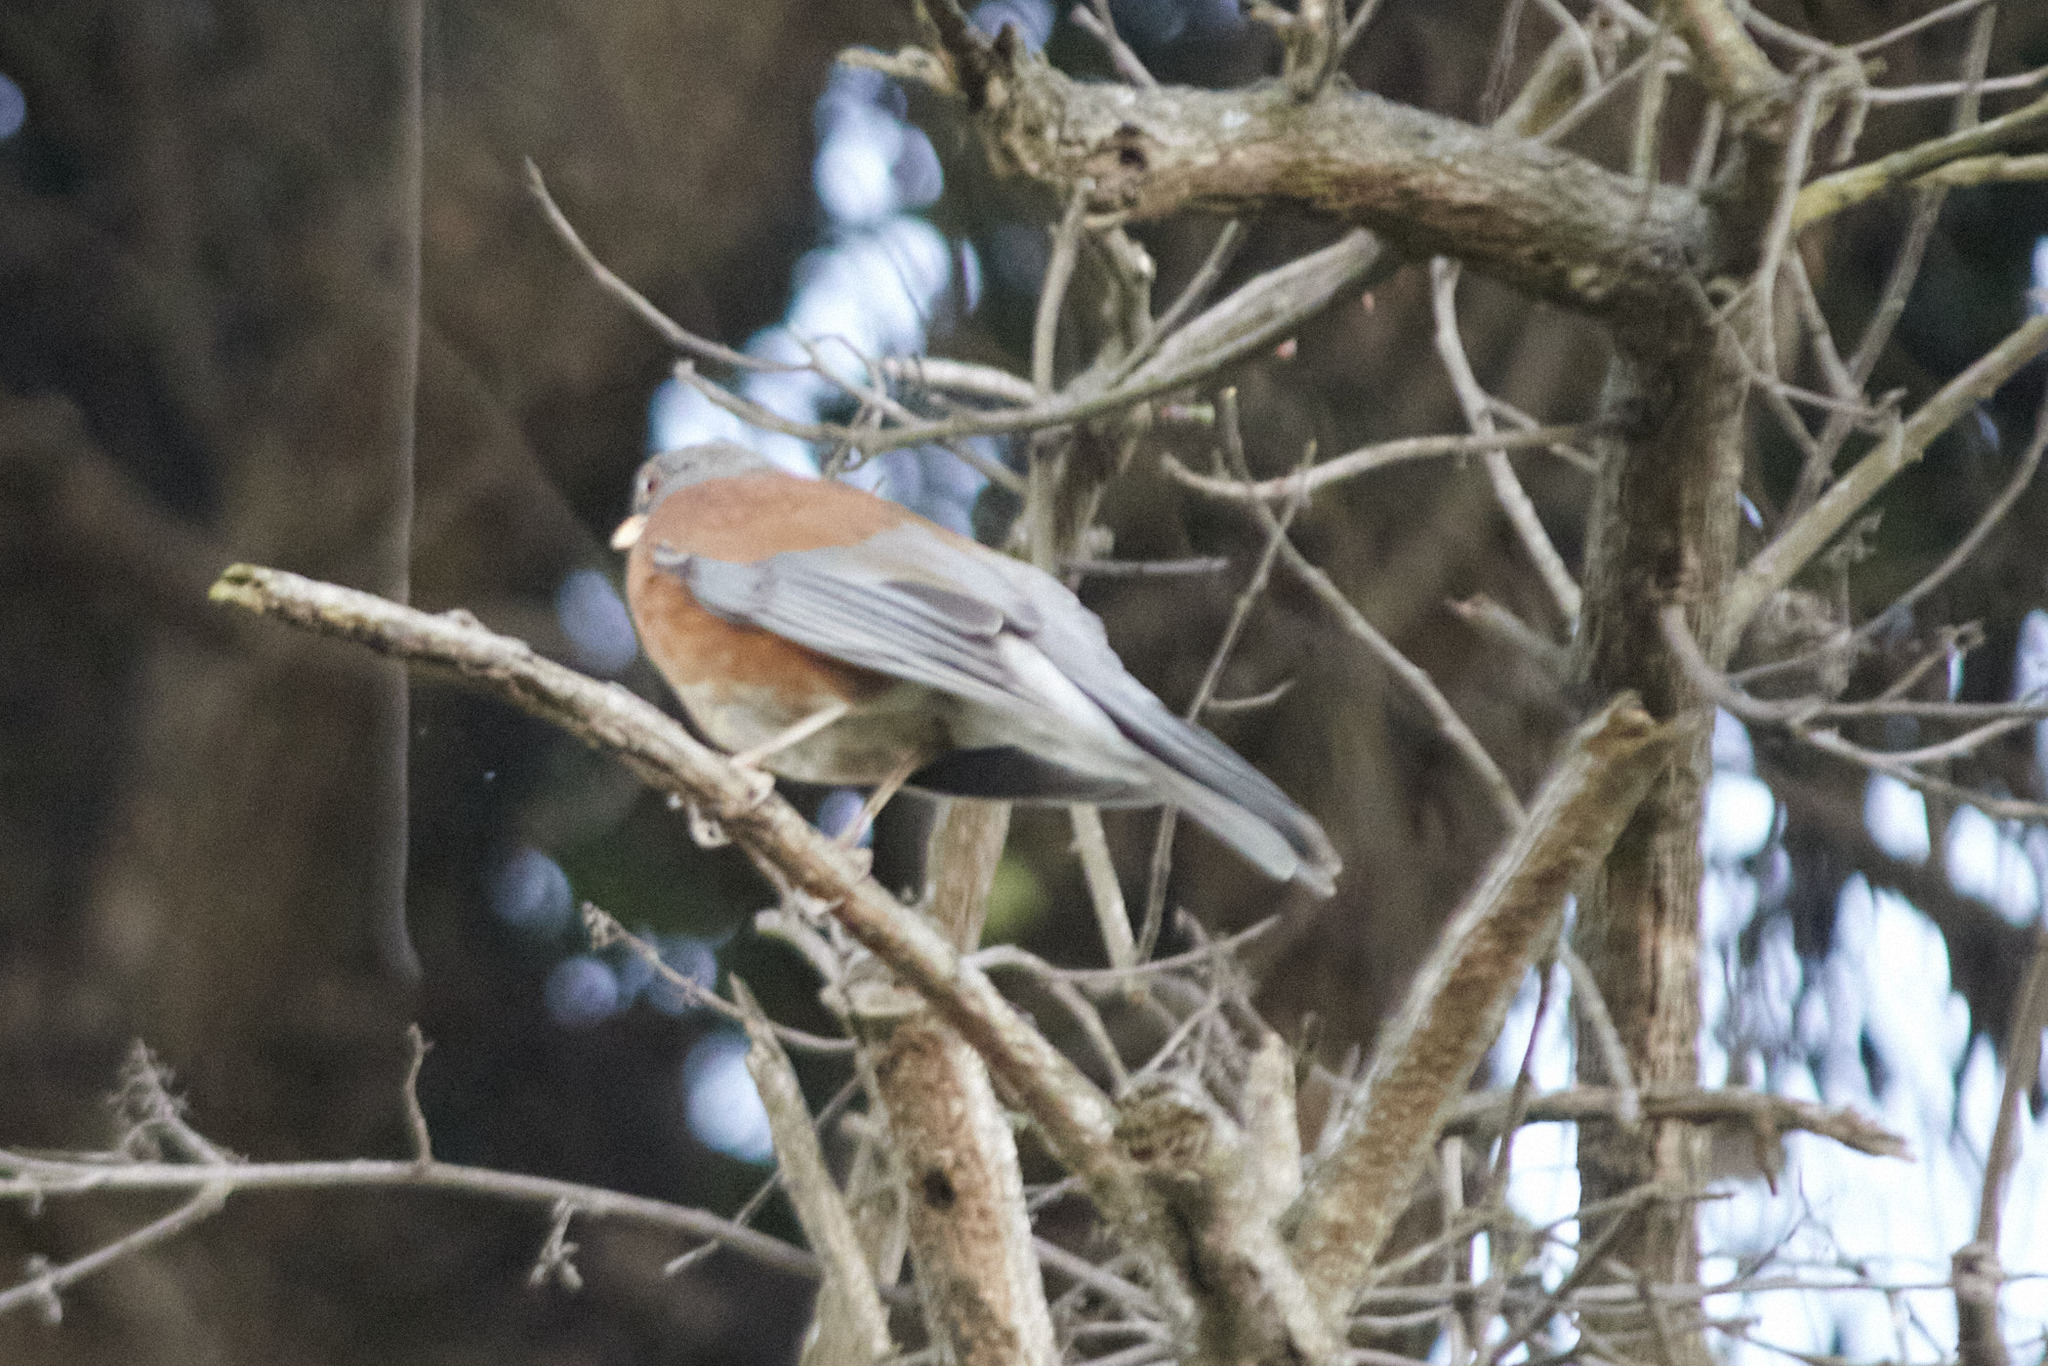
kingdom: Animalia
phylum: Chordata
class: Aves
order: Passeriformes
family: Turdidae
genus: Turdus
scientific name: Turdus rufopalliatus
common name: Rufous-backed robin
